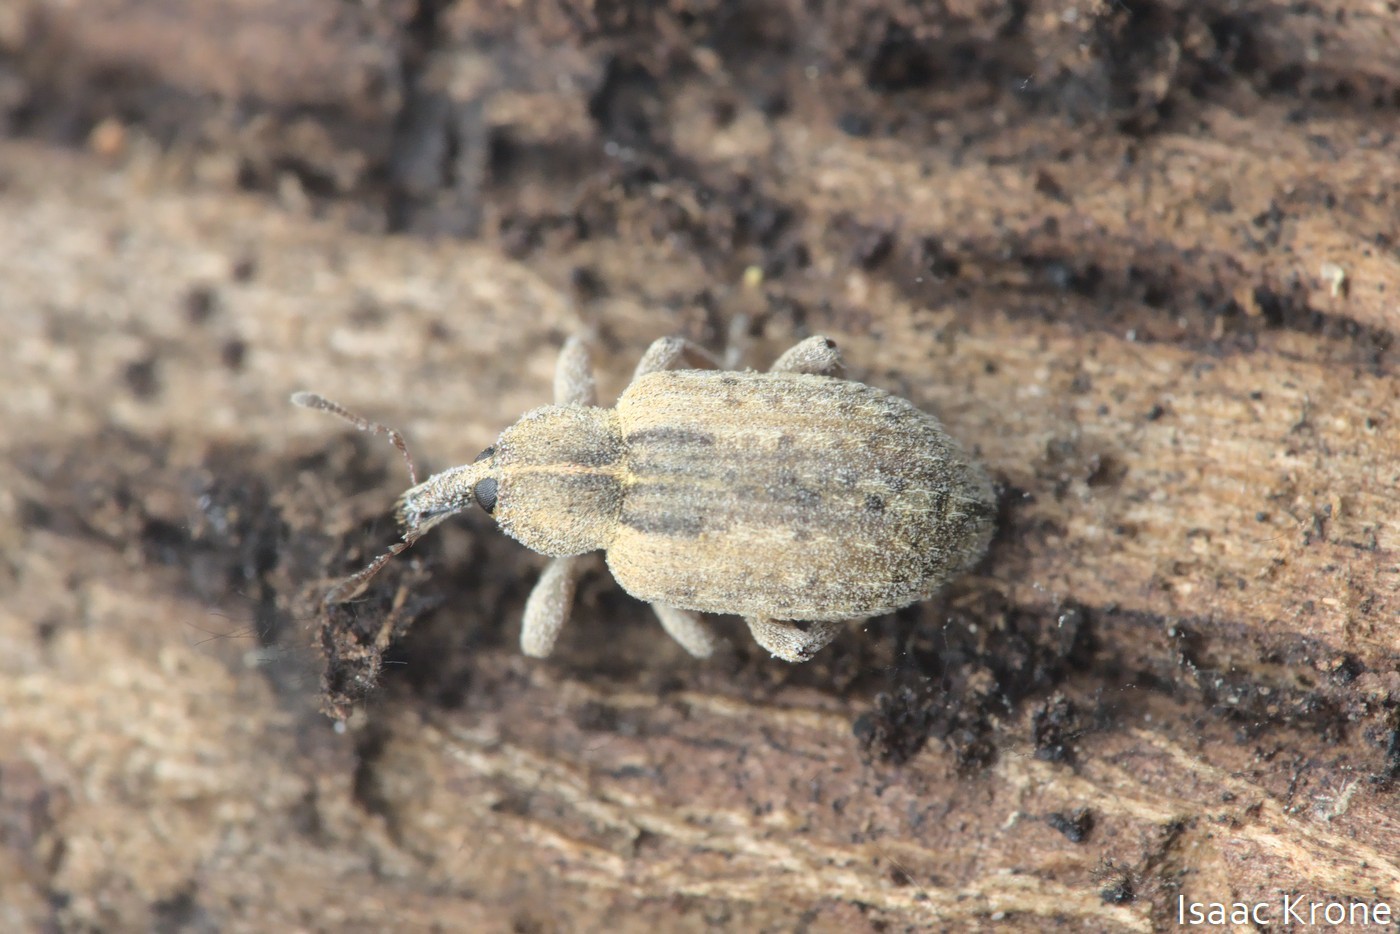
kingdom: Animalia
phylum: Arthropoda
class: Insecta
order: Coleoptera
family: Curculionidae
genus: Hypera
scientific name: Hypera postica
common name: Weevil
